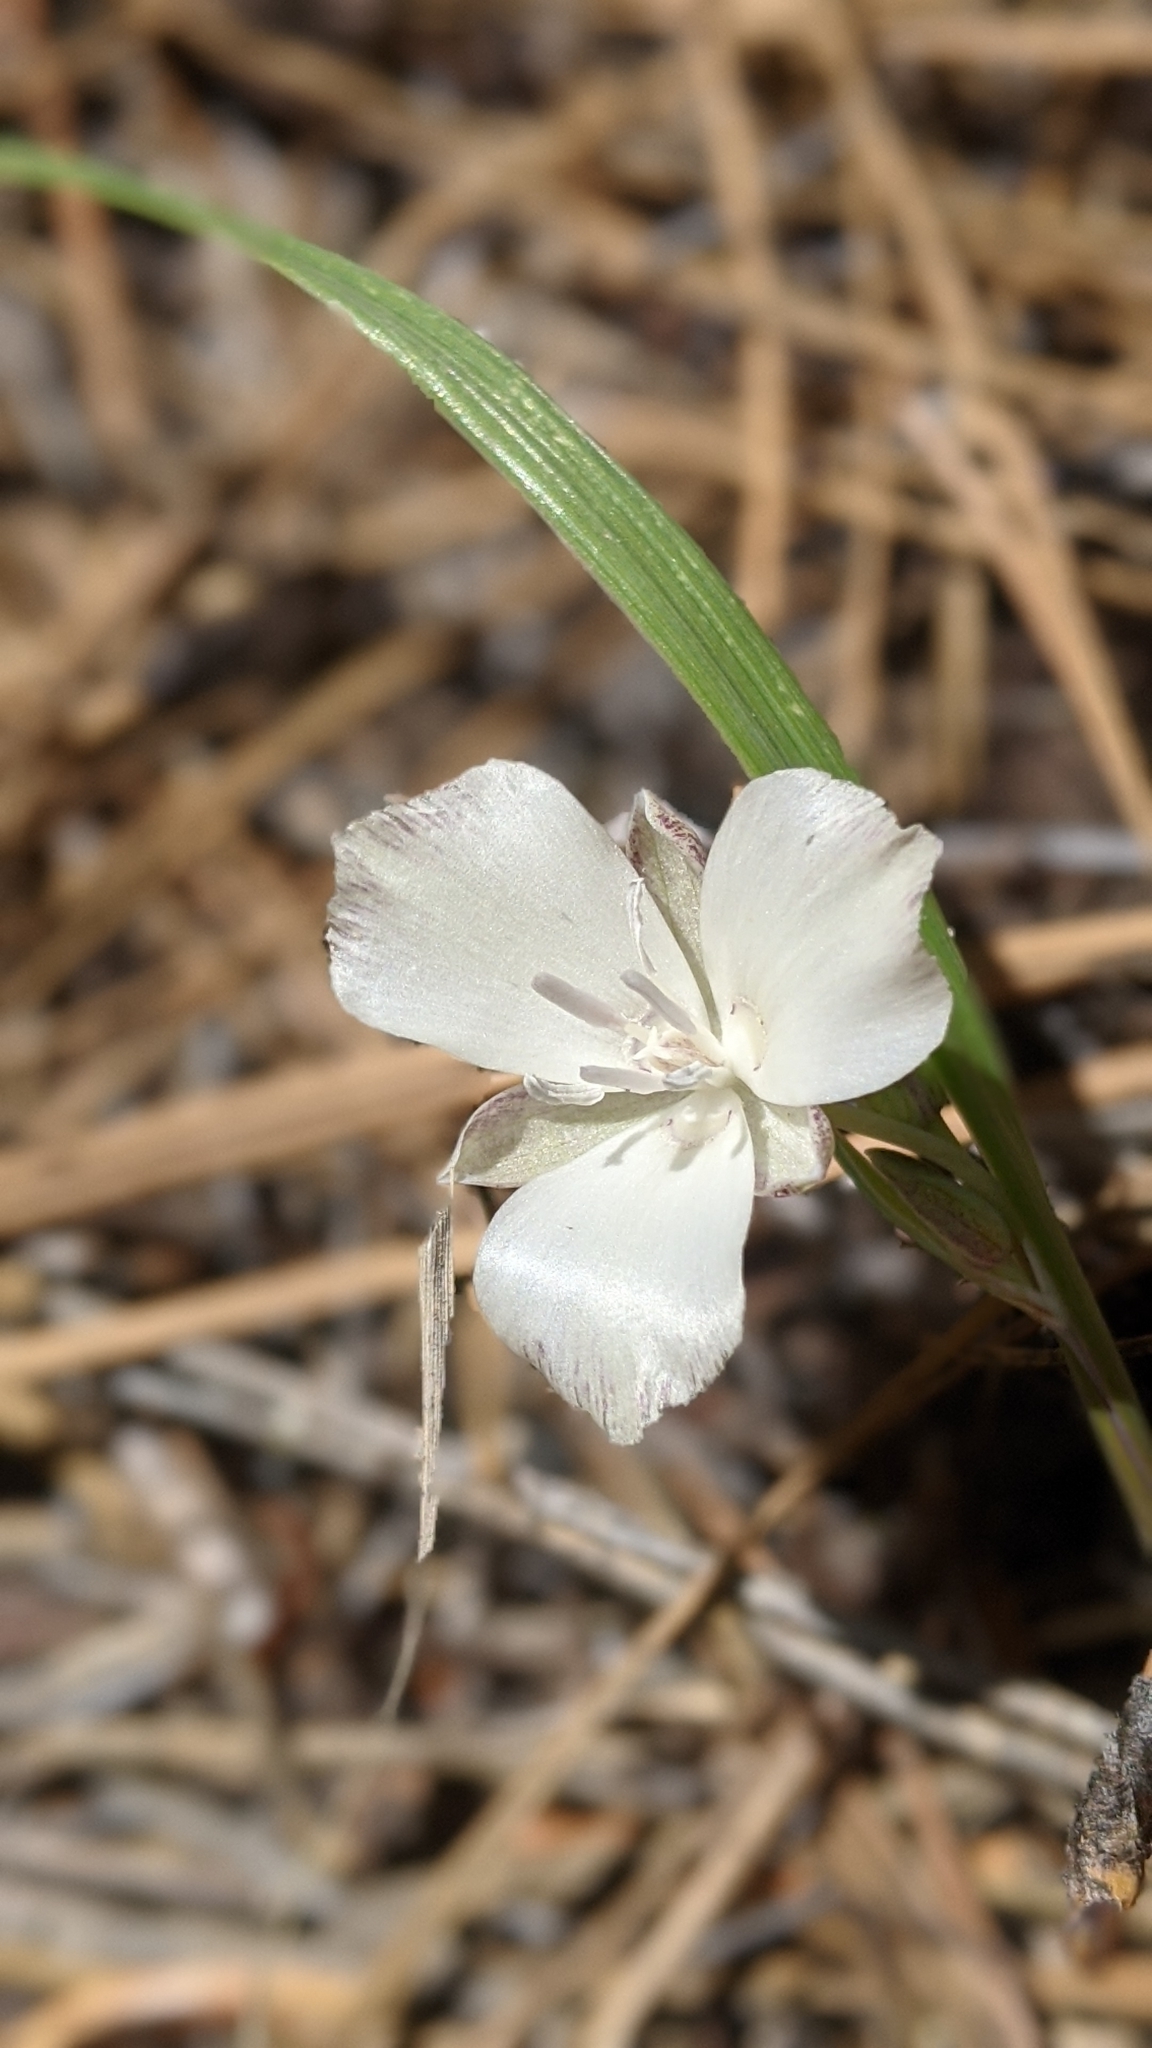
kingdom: Plantae
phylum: Tracheophyta
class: Liliopsida
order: Liliales
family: Liliaceae
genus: Calochortus
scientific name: Calochortus minimus
